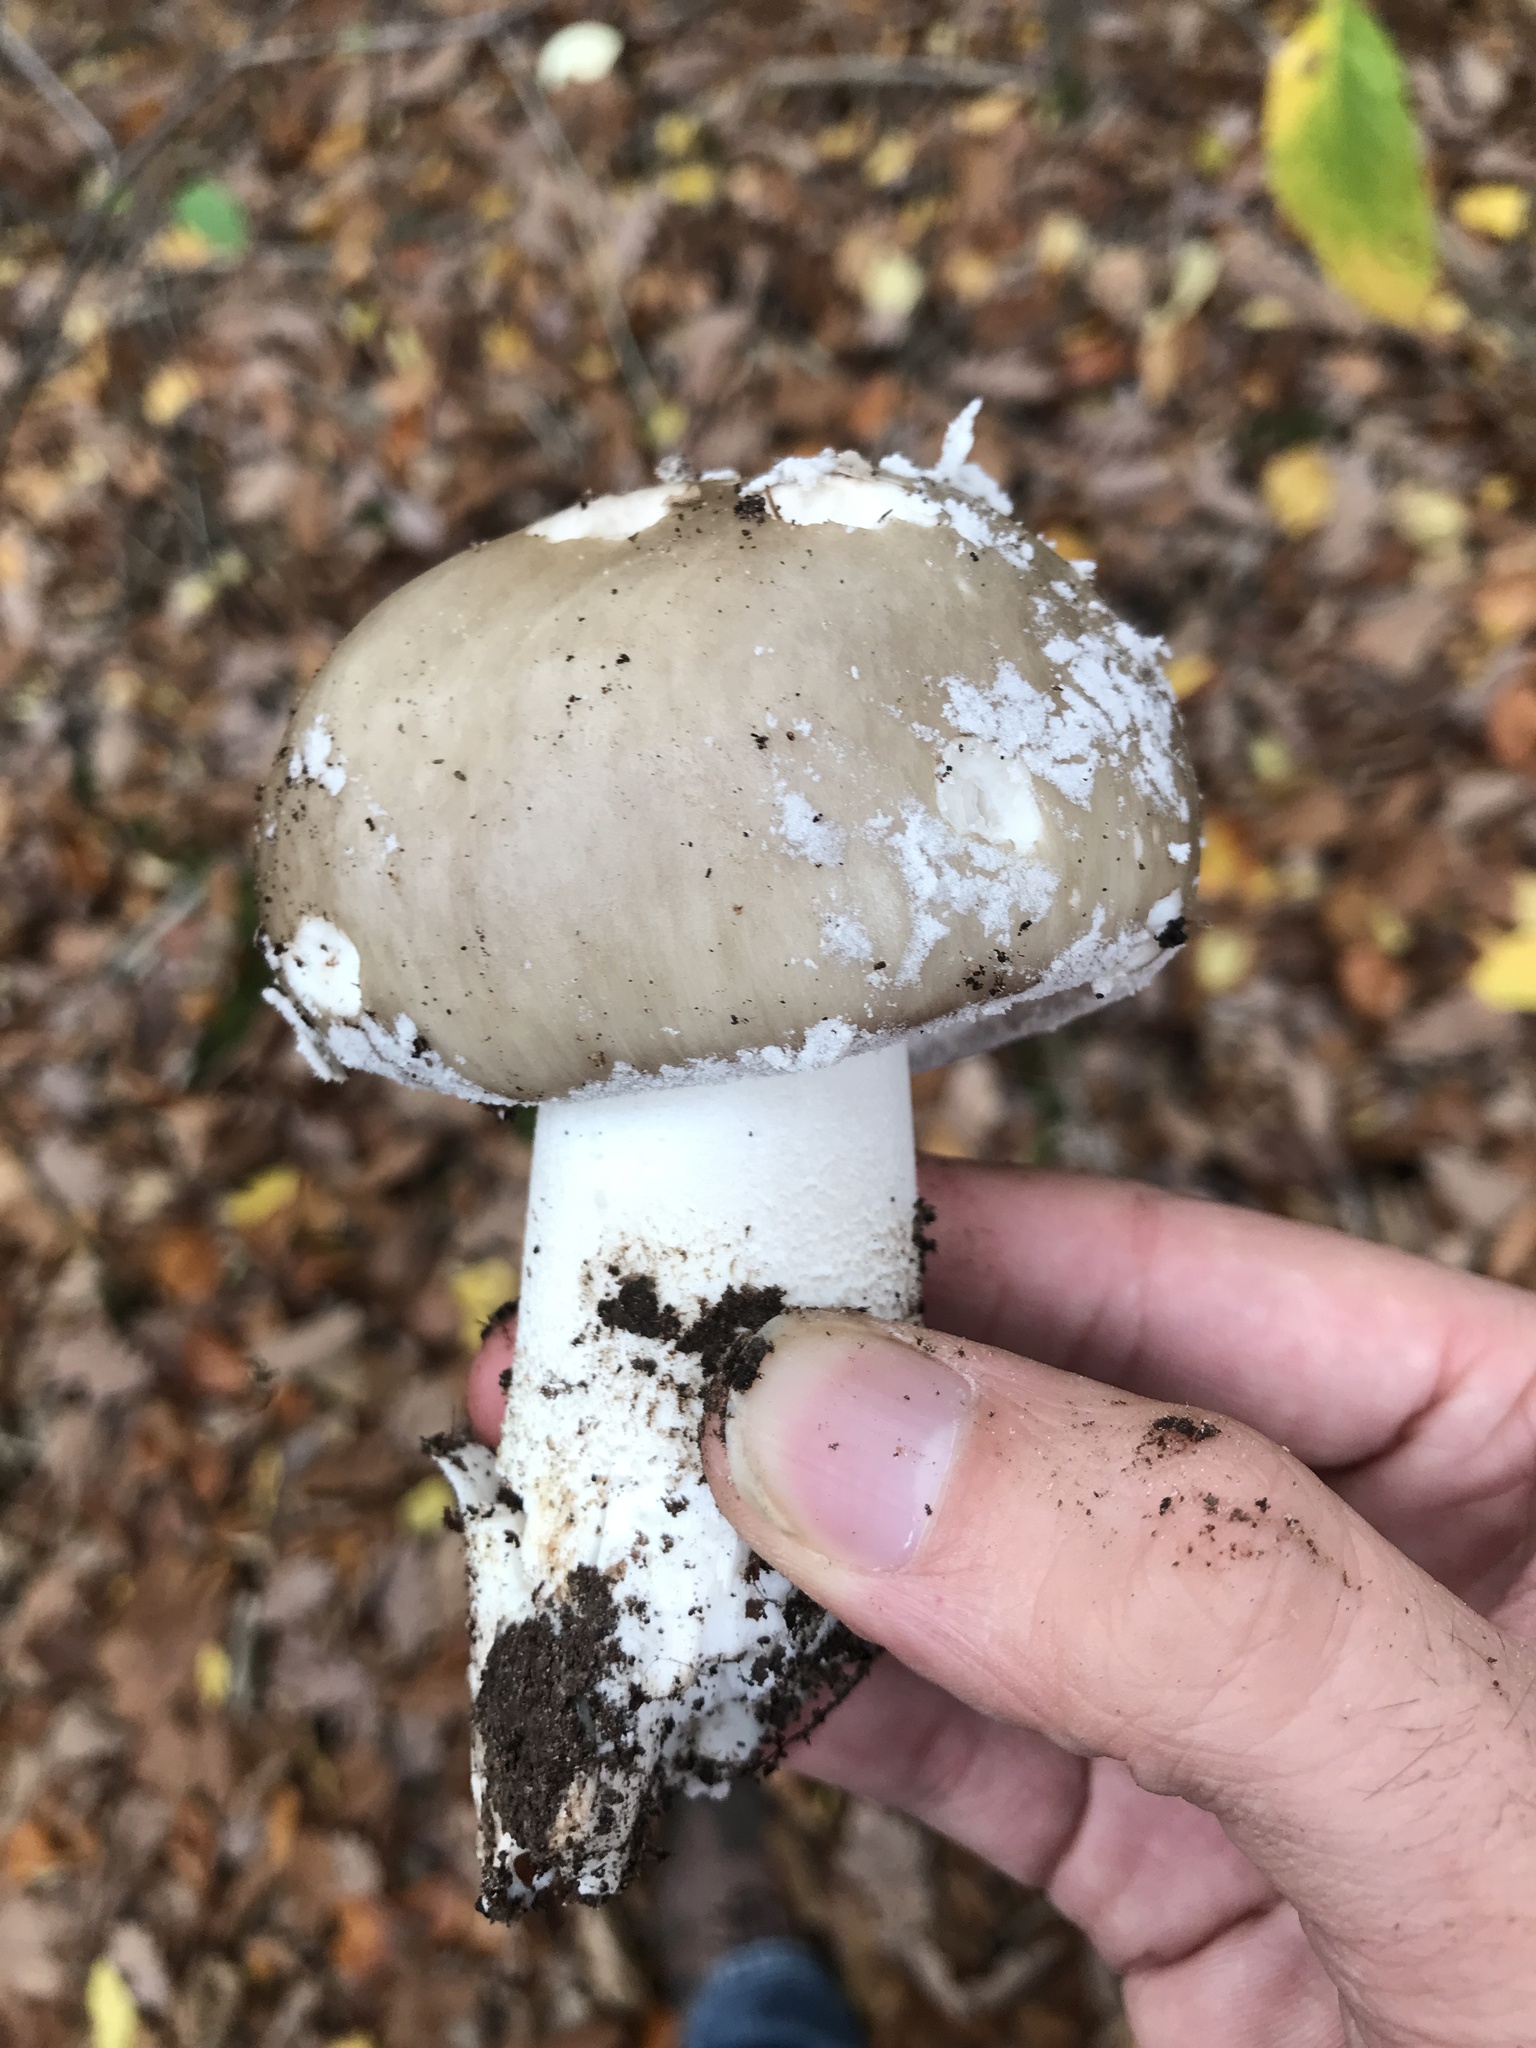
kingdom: Fungi
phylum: Basidiomycota
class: Agaricomycetes
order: Agaricales
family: Amanitaceae
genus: Amanita
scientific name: Amanita excelsa
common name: European false blusher
